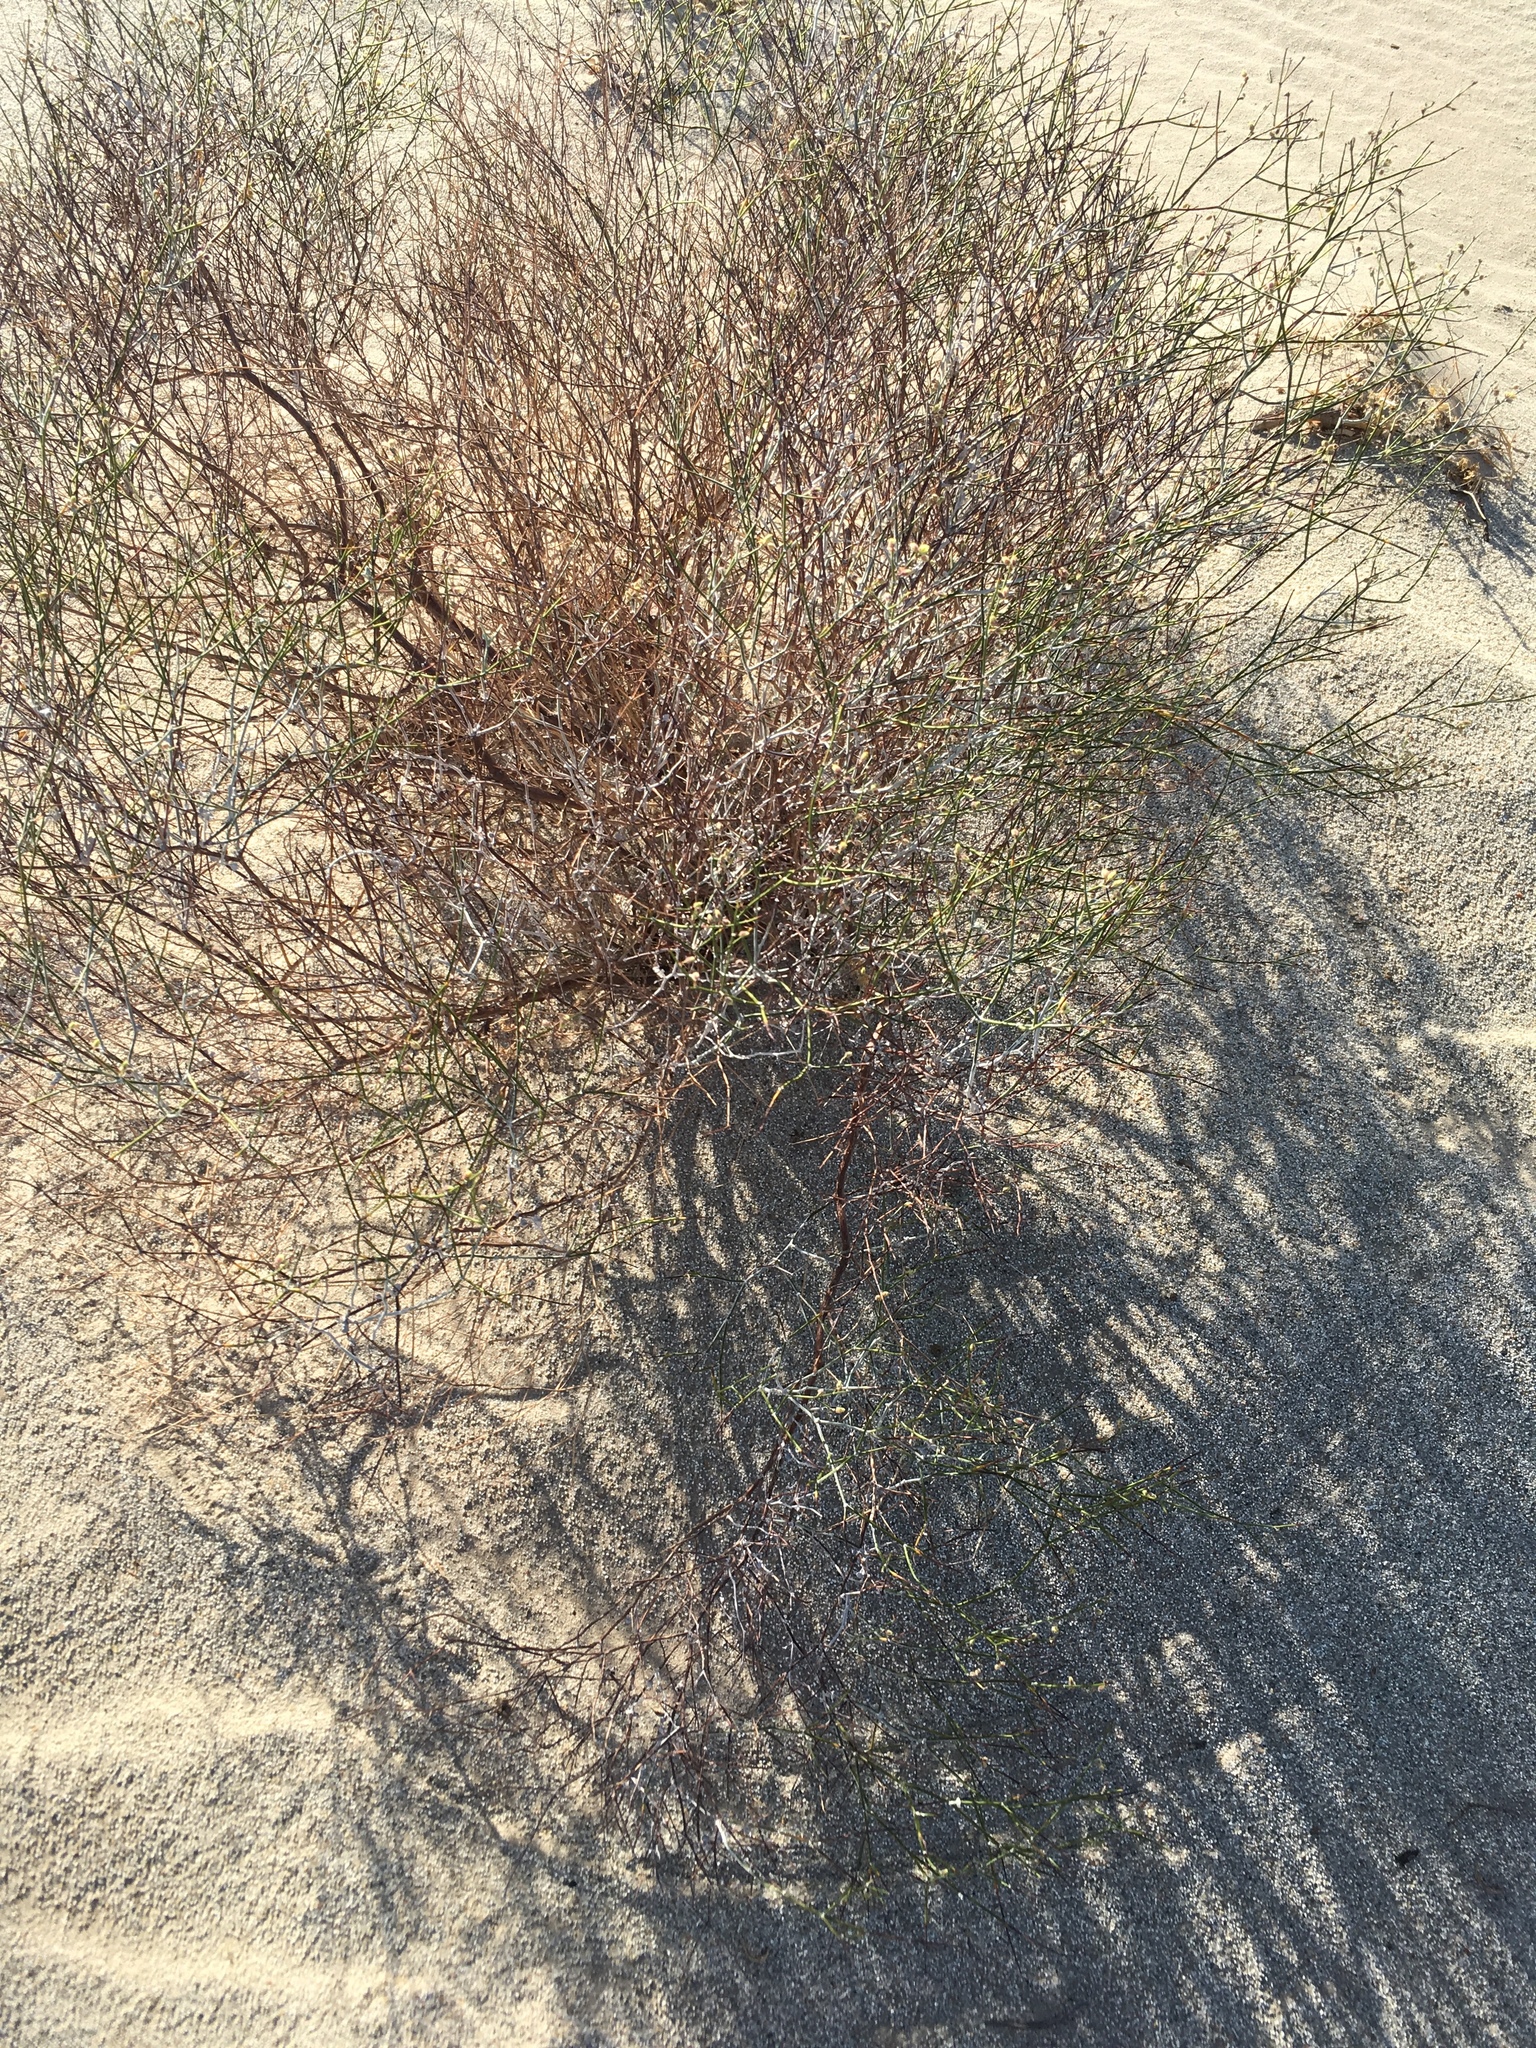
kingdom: Plantae
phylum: Tracheophyta
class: Magnoliopsida
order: Caryophyllales
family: Polygonaceae
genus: Eriogonum
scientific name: Eriogonum deserticola
